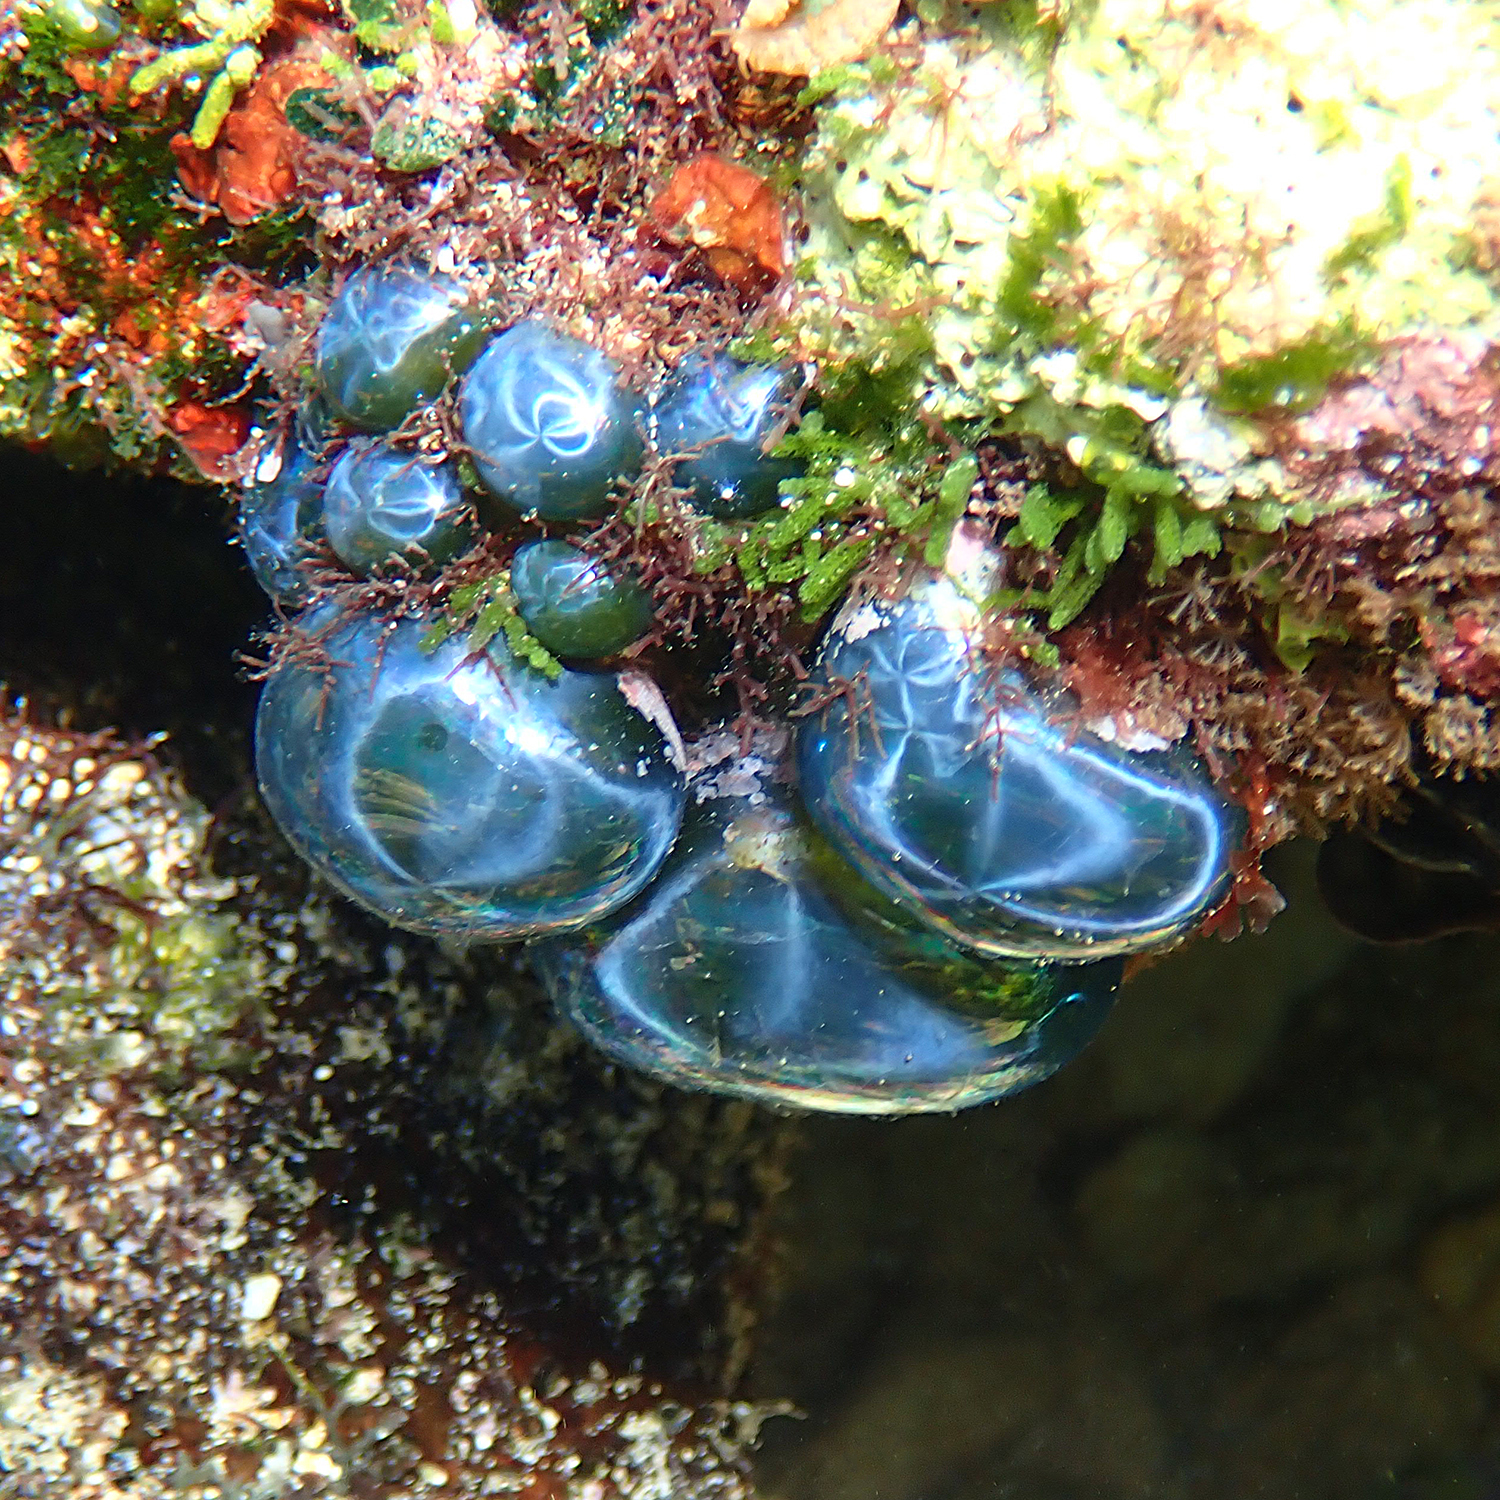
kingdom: Plantae
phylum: Chlorophyta
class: Ulvophyceae
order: Siphonocladales
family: Valoniaceae
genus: Valonia
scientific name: Valonia ventricosa
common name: Sea pearl
